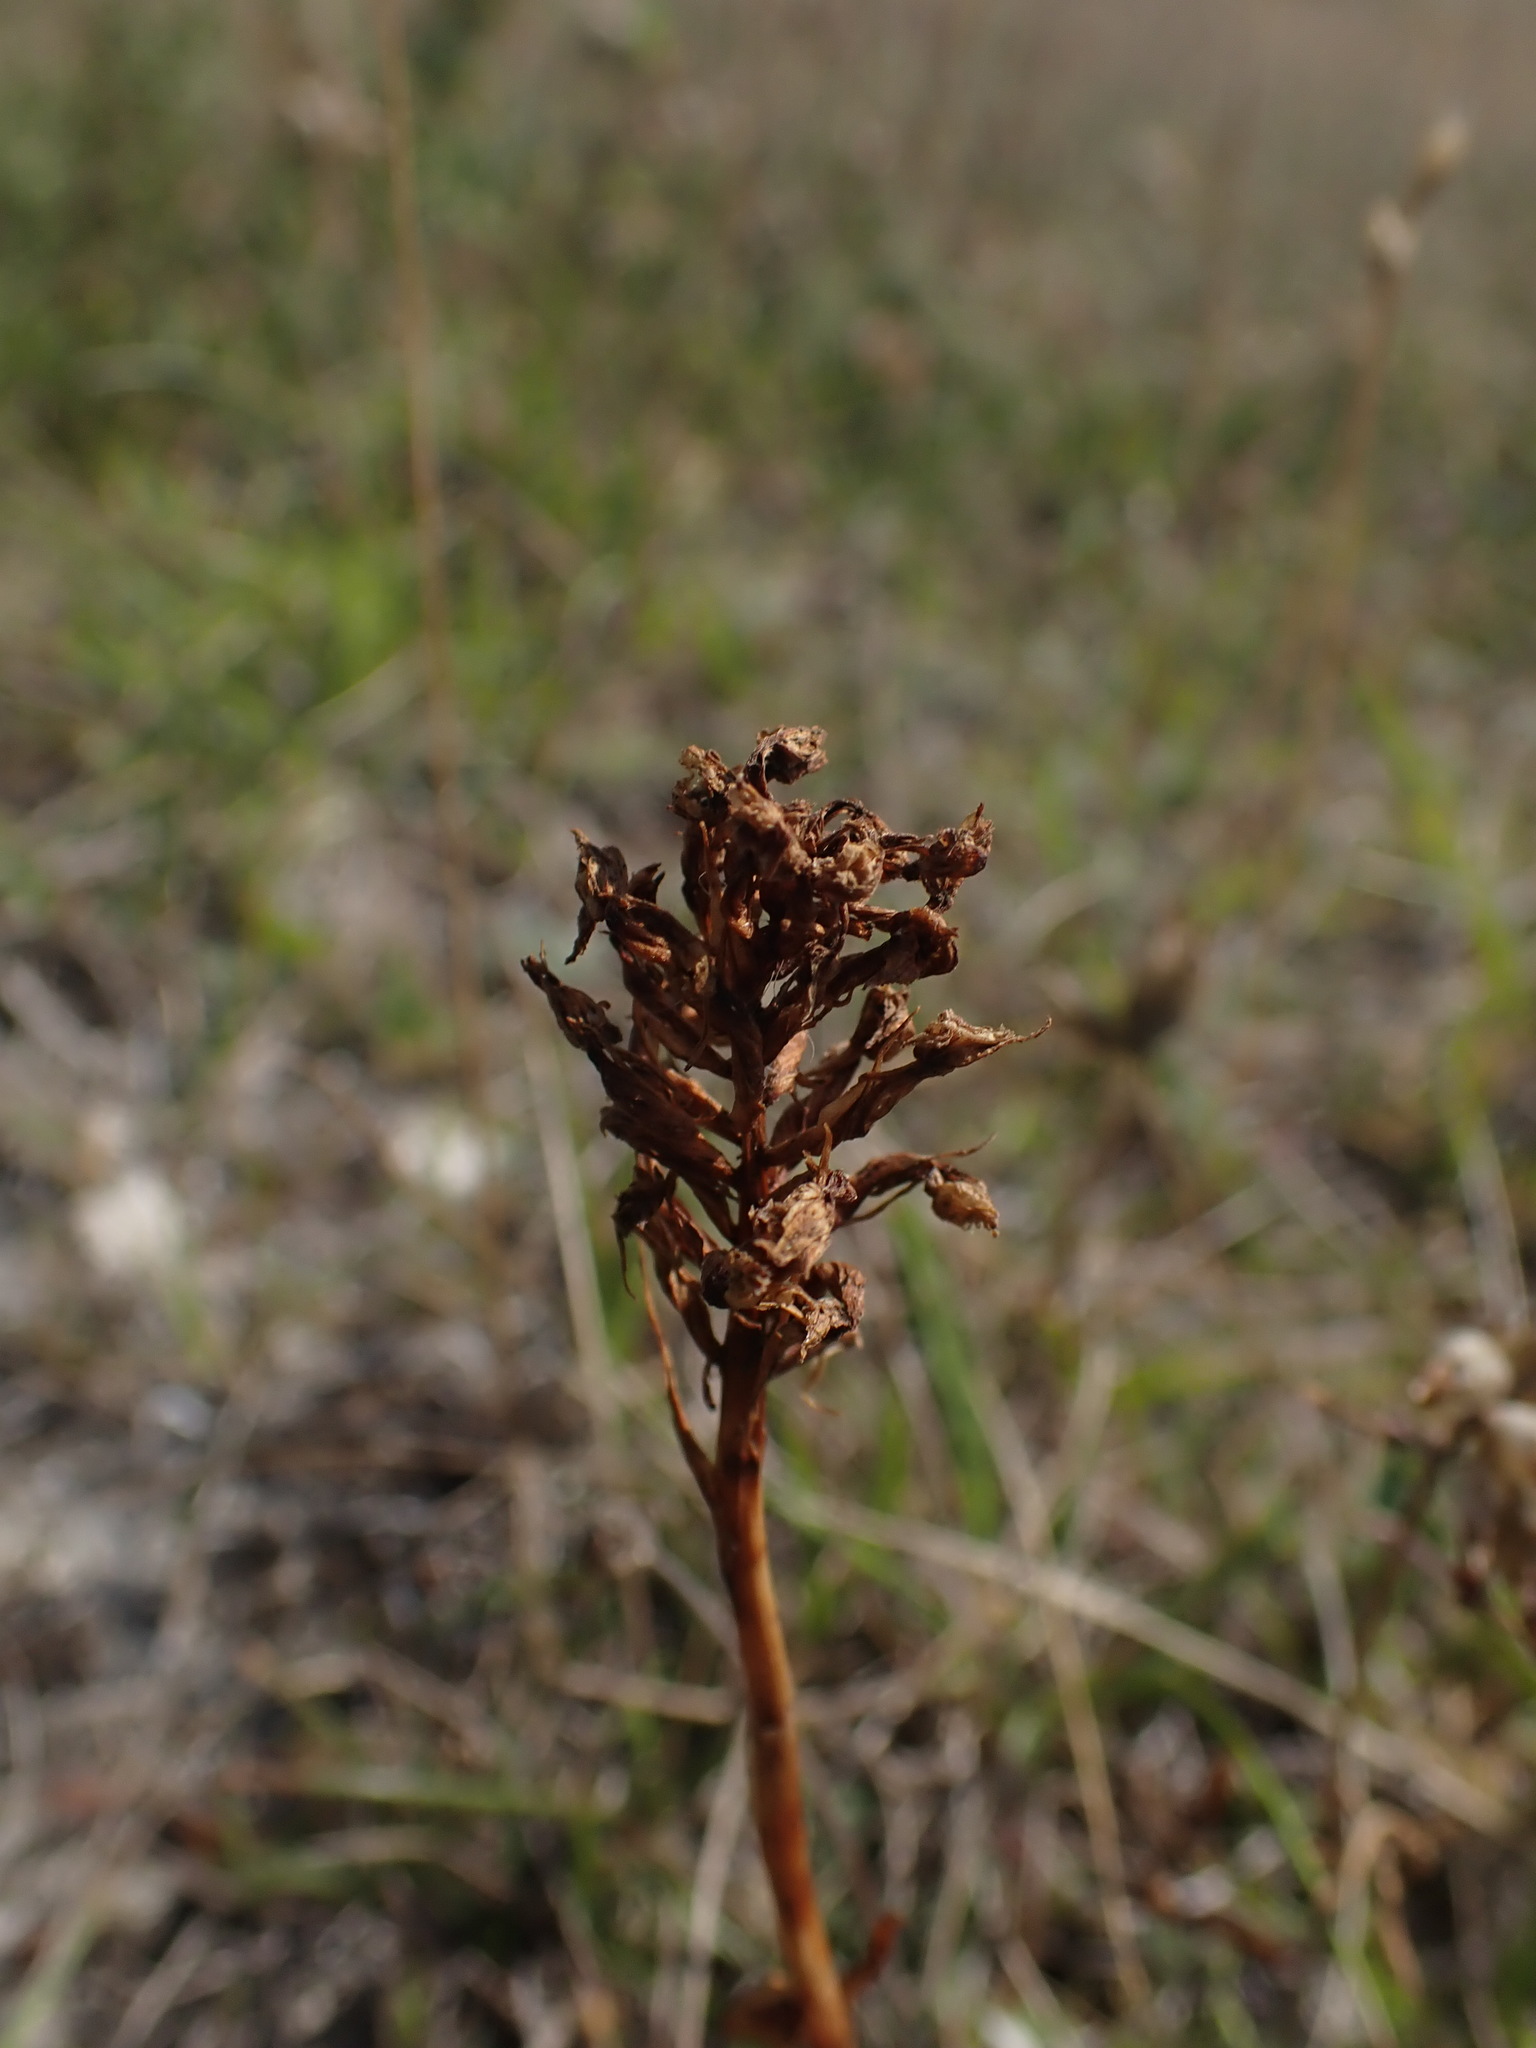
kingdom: Plantae
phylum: Tracheophyta
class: Liliopsida
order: Asparagales
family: Orchidaceae
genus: Anacamptis
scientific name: Anacamptis pyramidalis
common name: Pyramidal orchid
